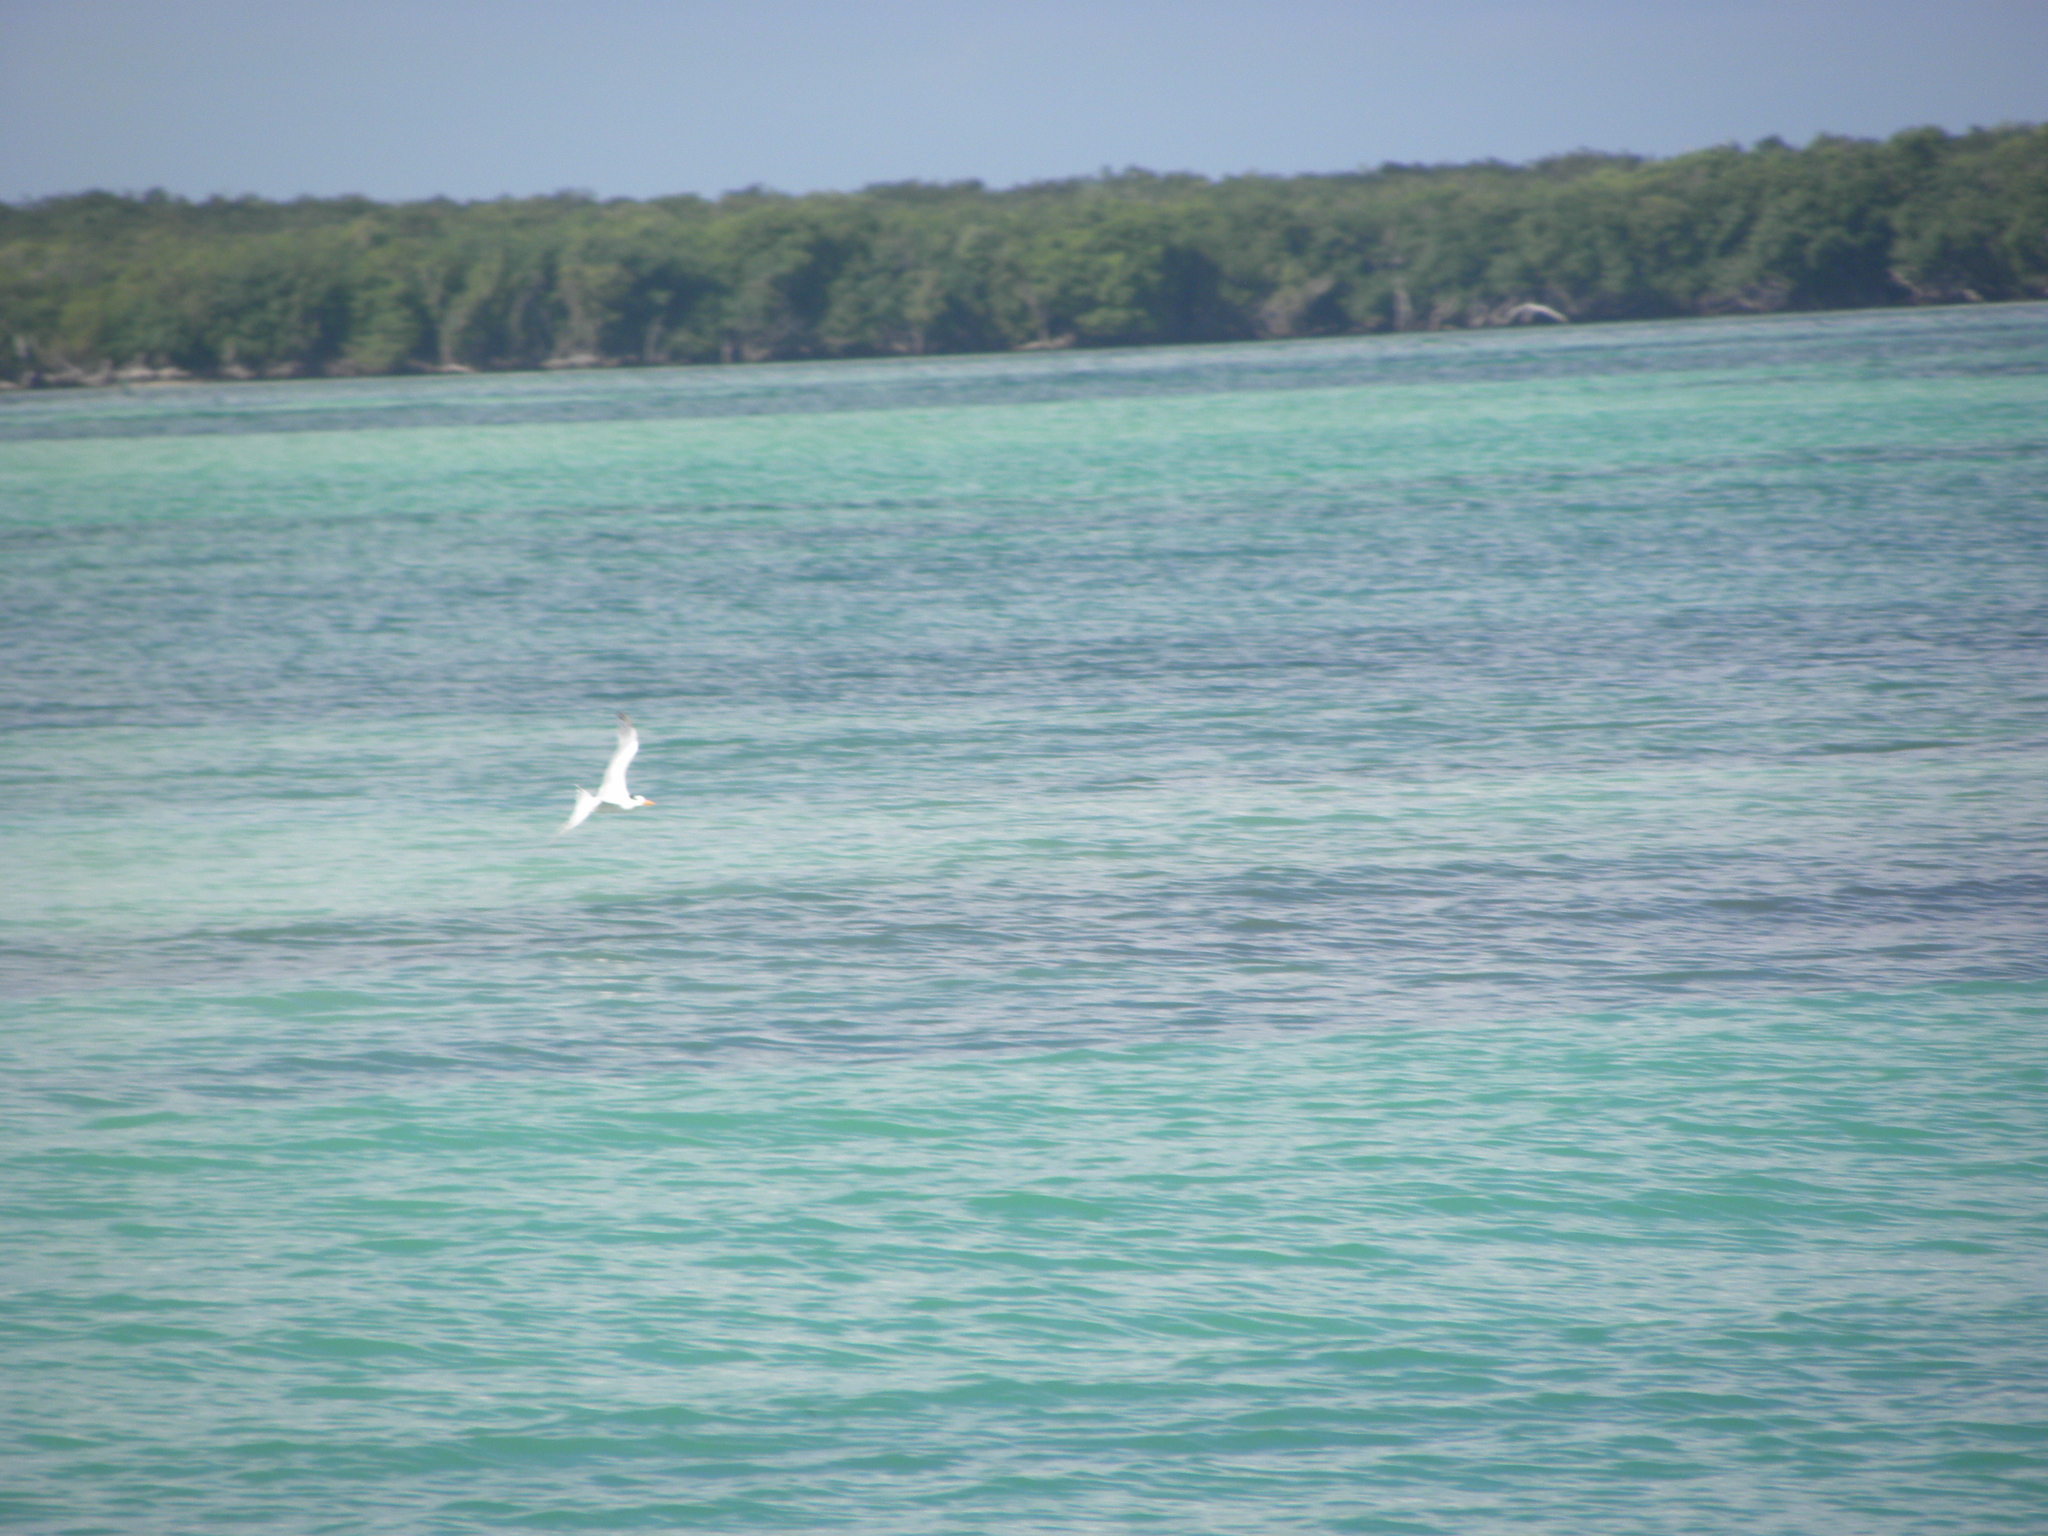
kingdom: Animalia
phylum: Chordata
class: Aves
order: Charadriiformes
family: Laridae
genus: Thalasseus
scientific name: Thalasseus maximus
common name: Royal tern
